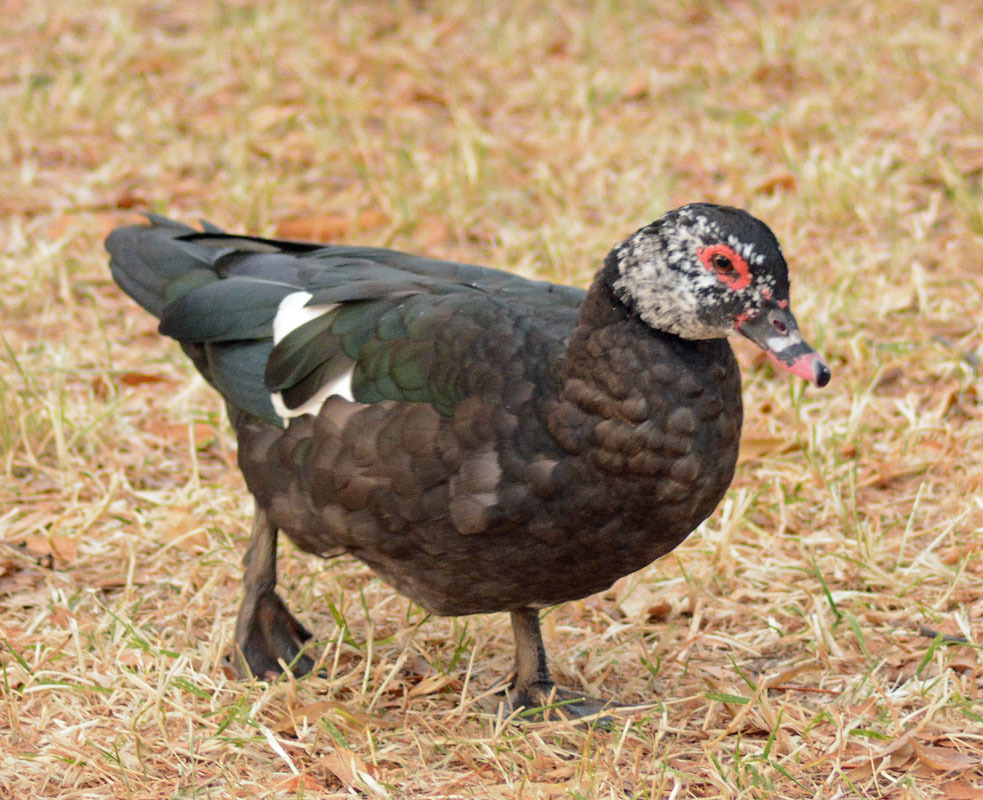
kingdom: Animalia
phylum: Chordata
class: Aves
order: Anseriformes
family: Anatidae
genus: Cairina
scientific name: Cairina moschata
